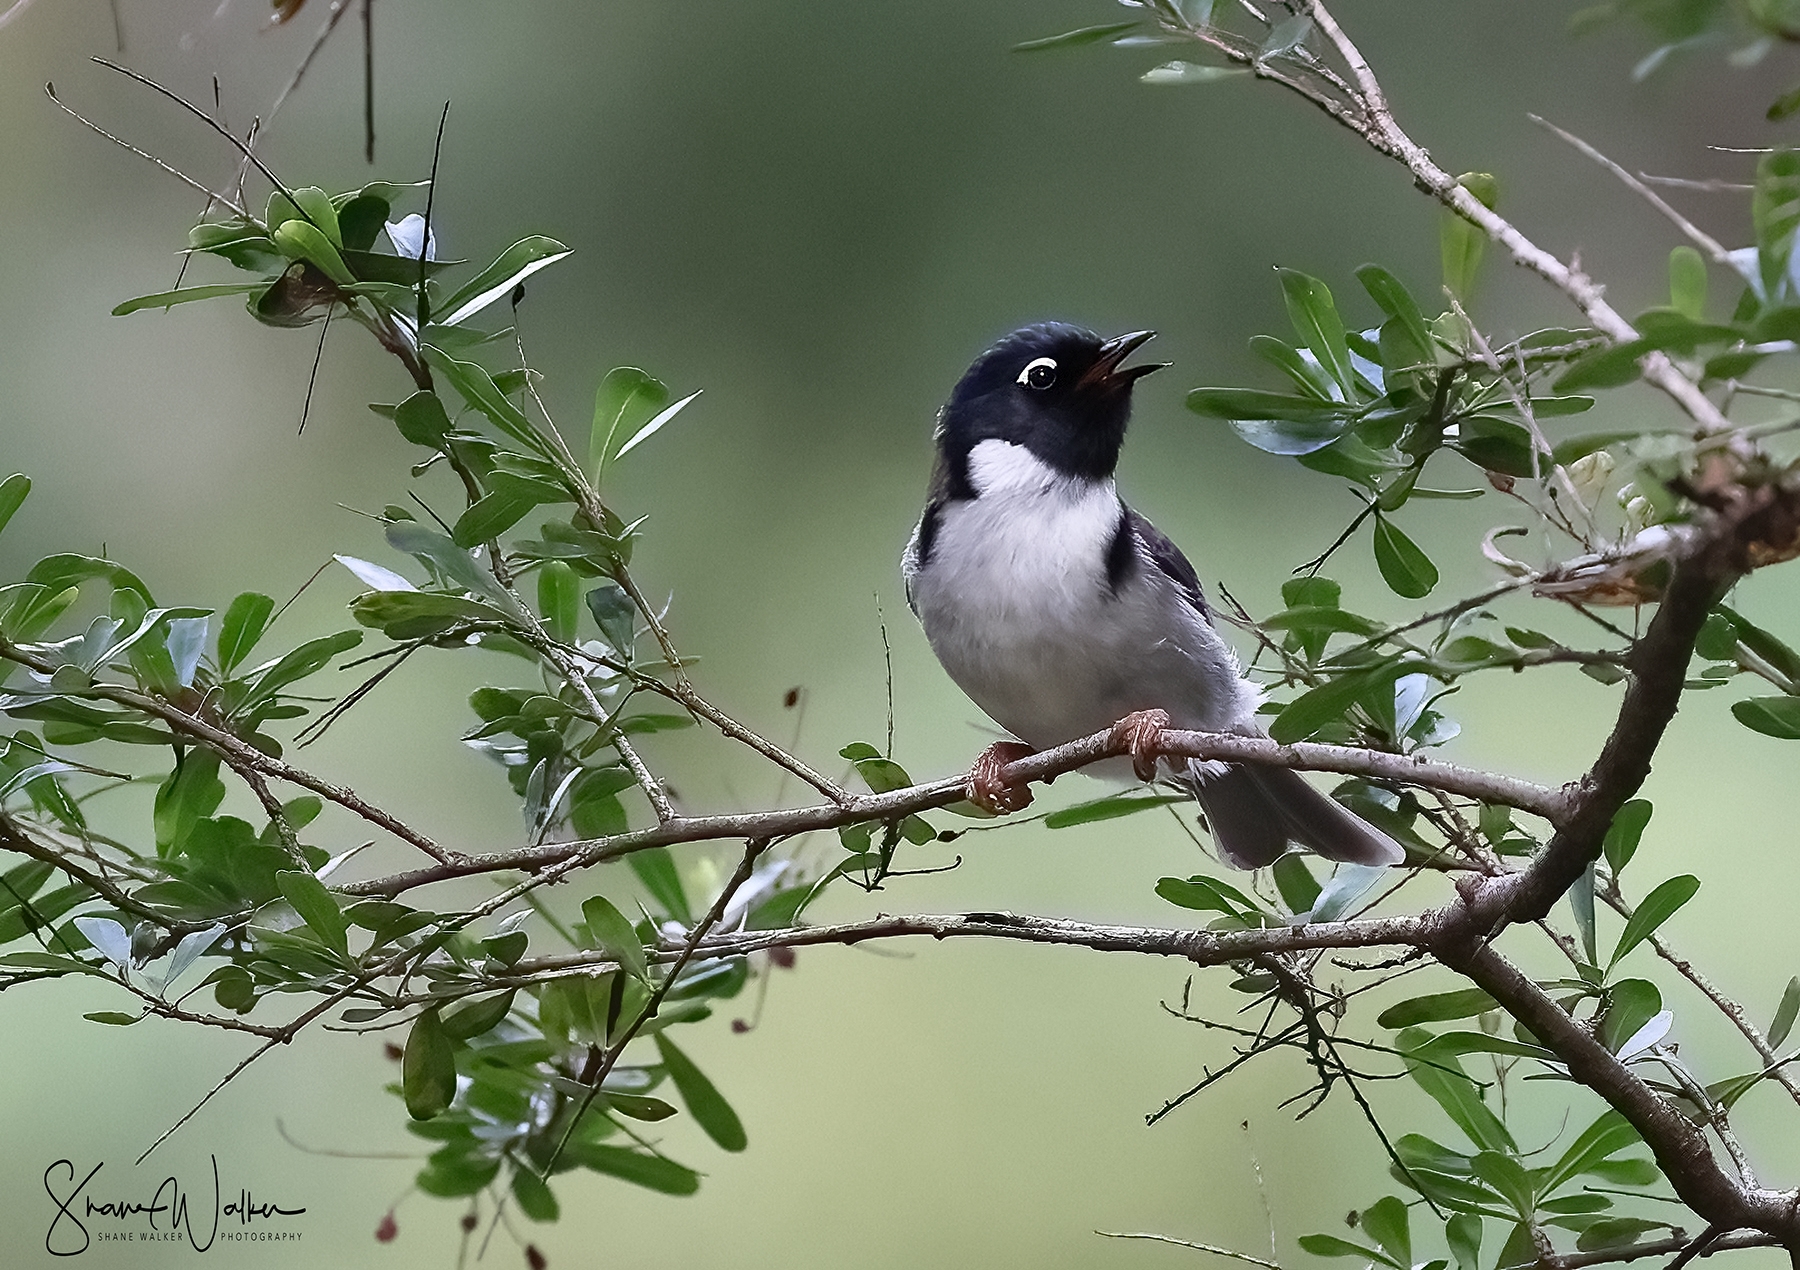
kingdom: Animalia
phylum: Chordata
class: Aves
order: Passeriformes
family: Meliphagidae
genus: Melithreptus
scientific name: Melithreptus affinis
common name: Black-headed honeyeater
